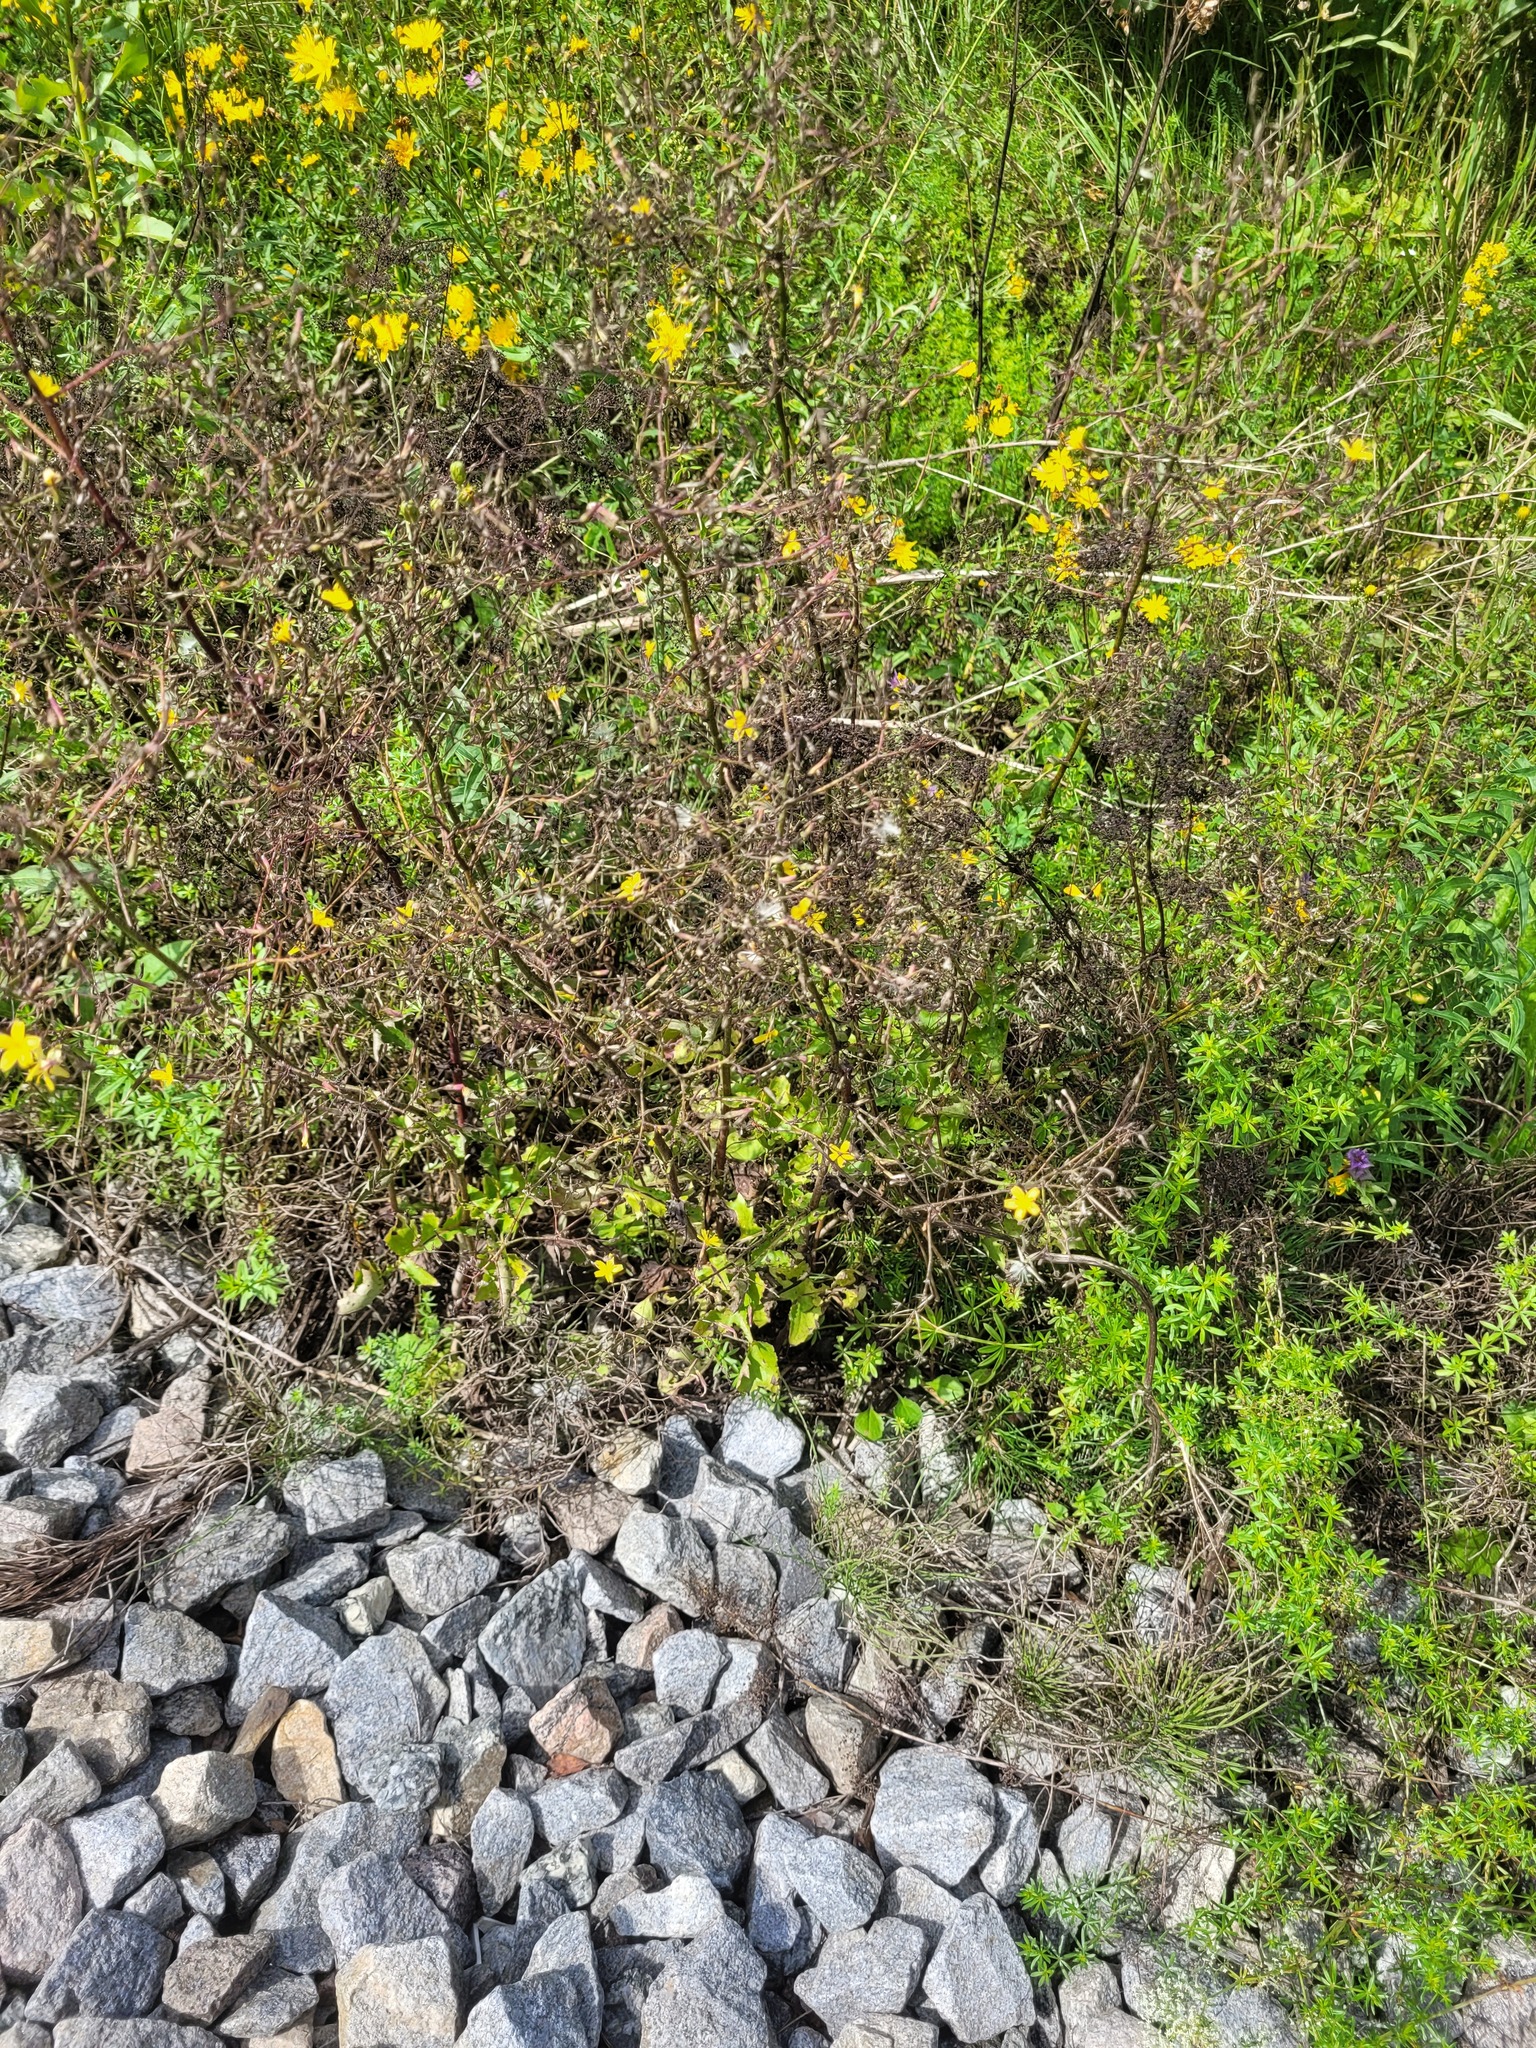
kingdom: Plantae
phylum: Tracheophyta
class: Magnoliopsida
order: Asterales
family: Asteraceae
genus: Mycelis
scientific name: Mycelis muralis
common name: Wall lettuce
